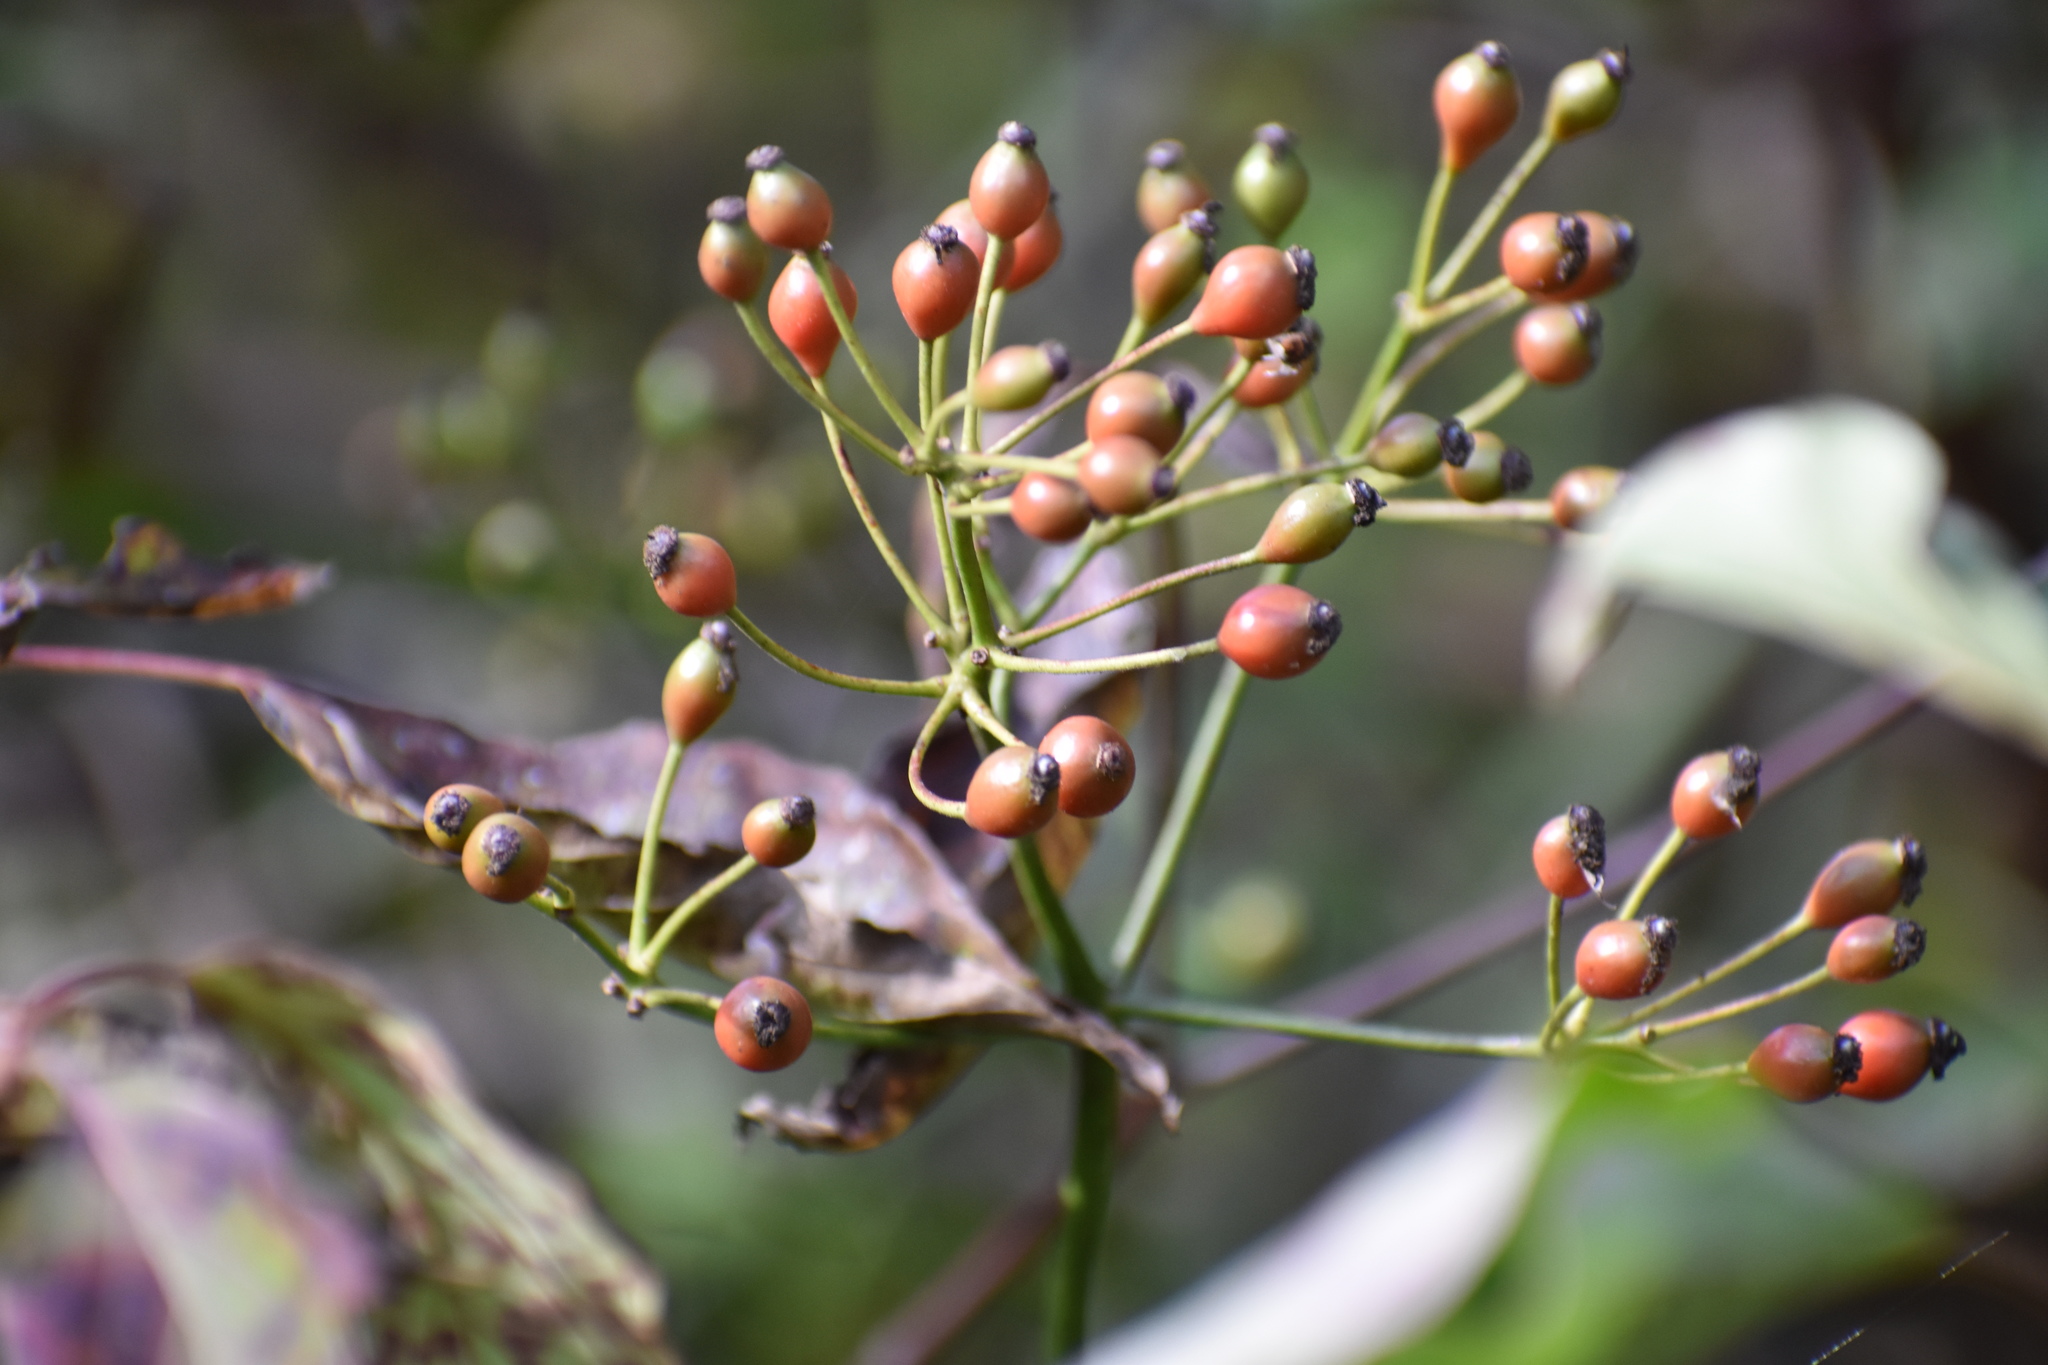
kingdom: Plantae
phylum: Tracheophyta
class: Magnoliopsida
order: Rosales
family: Rosaceae
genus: Rosa
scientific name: Rosa multiflora
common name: Multiflora rose
